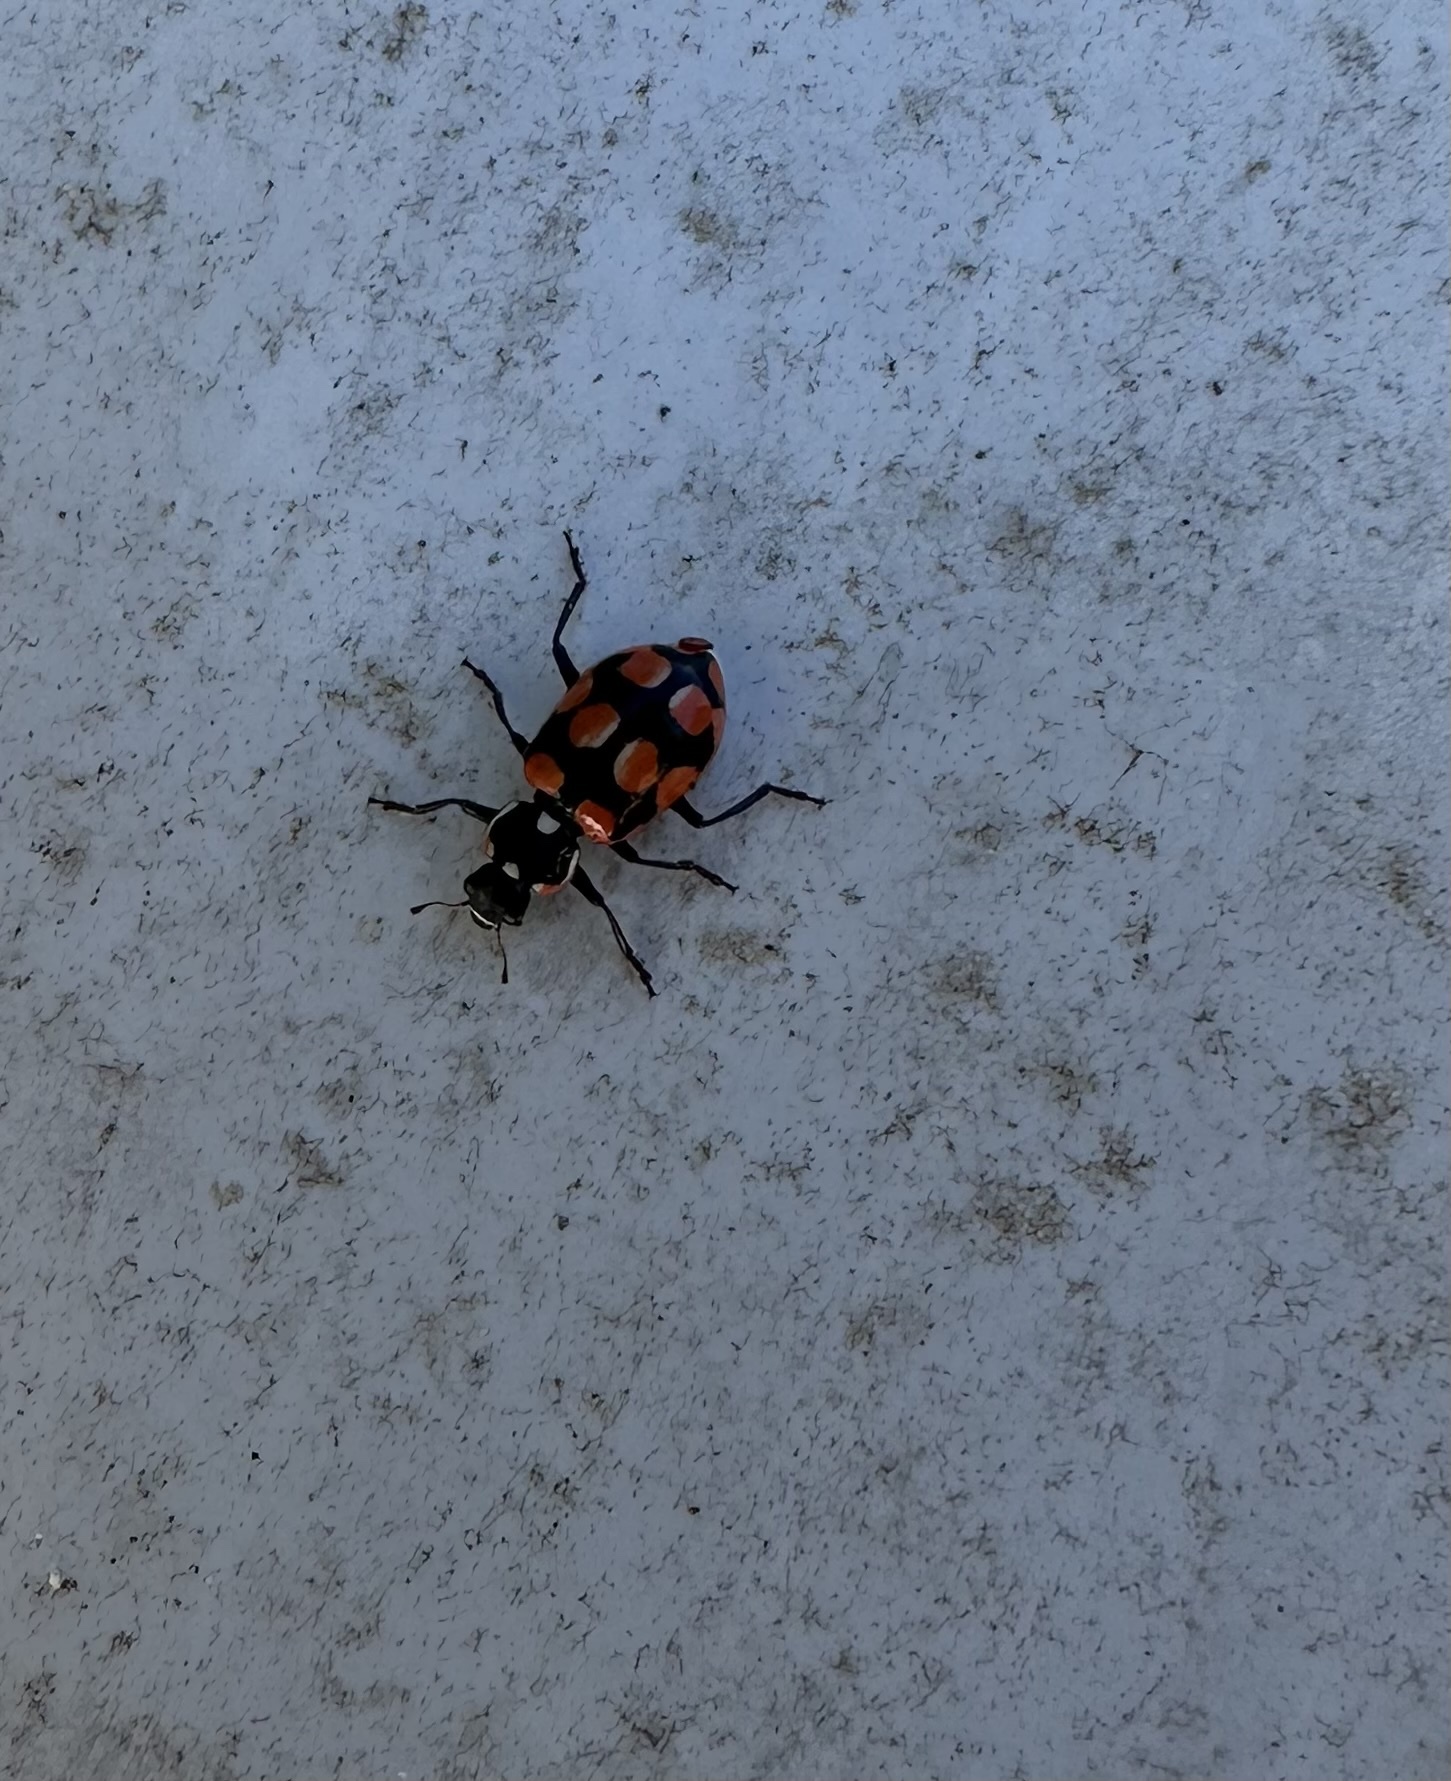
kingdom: Animalia
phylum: Arthropoda
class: Insecta
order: Coleoptera
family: Coccinellidae
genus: Eriopis
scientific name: Eriopis chilensis
